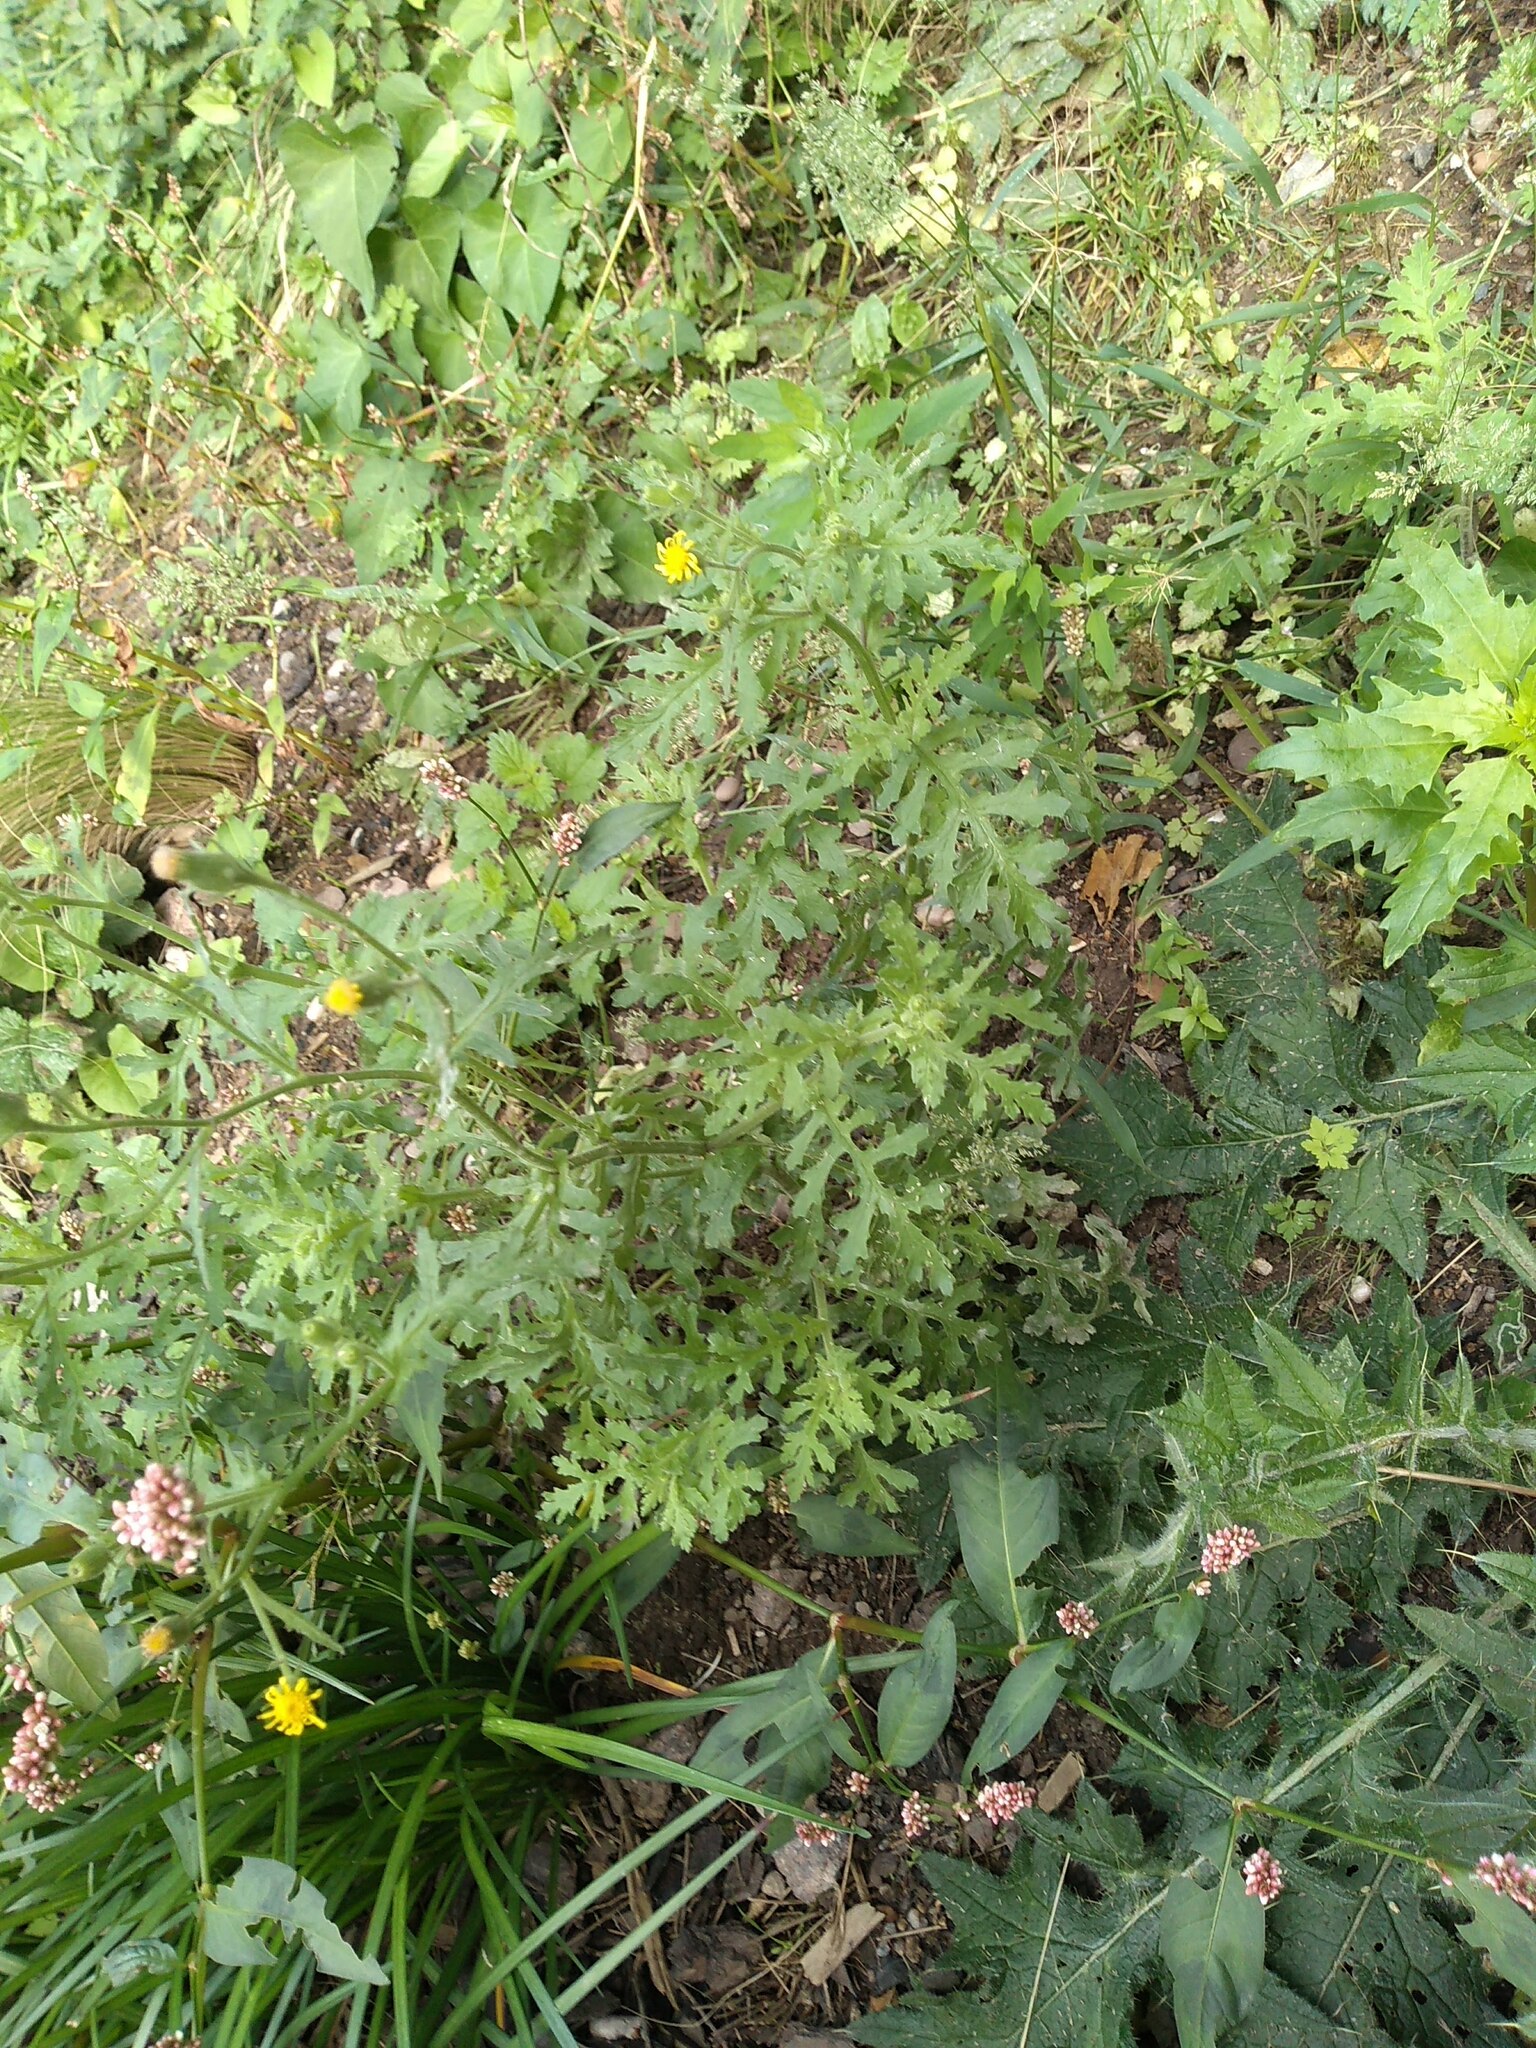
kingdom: Plantae
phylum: Tracheophyta
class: Magnoliopsida
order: Asterales
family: Asteraceae
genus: Senecio
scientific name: Senecio viscosus
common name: Sticky groundsel
